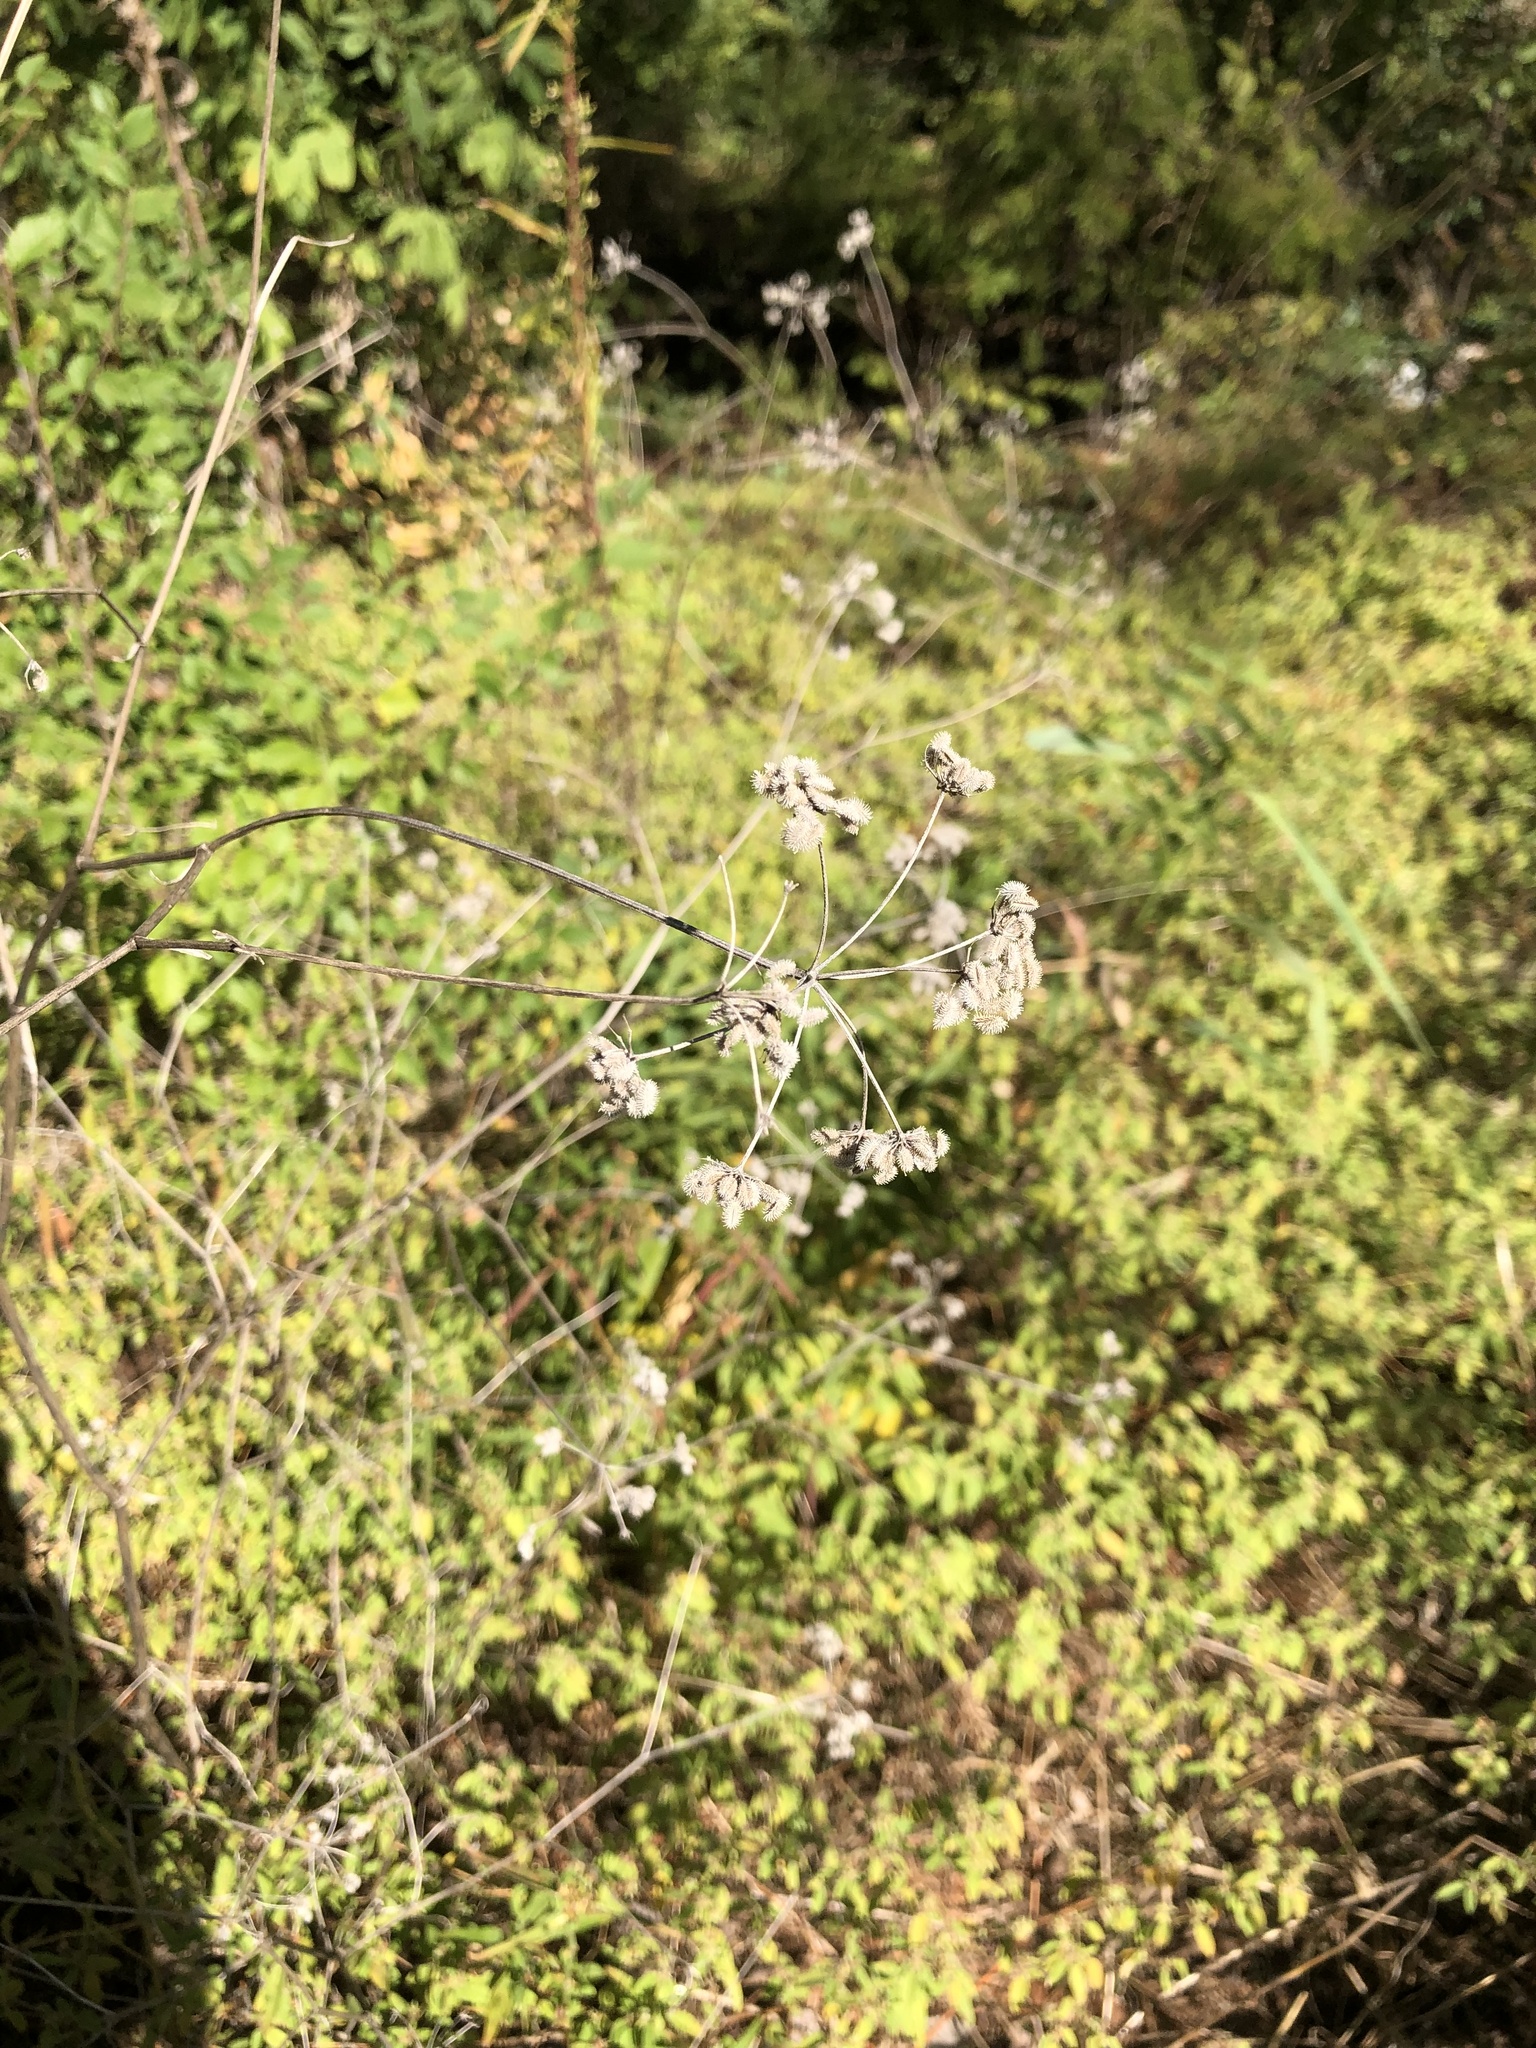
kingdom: Plantae
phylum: Tracheophyta
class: Magnoliopsida
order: Apiales
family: Apiaceae
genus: Torilis
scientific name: Torilis arvensis
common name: Spreading hedge-parsley
